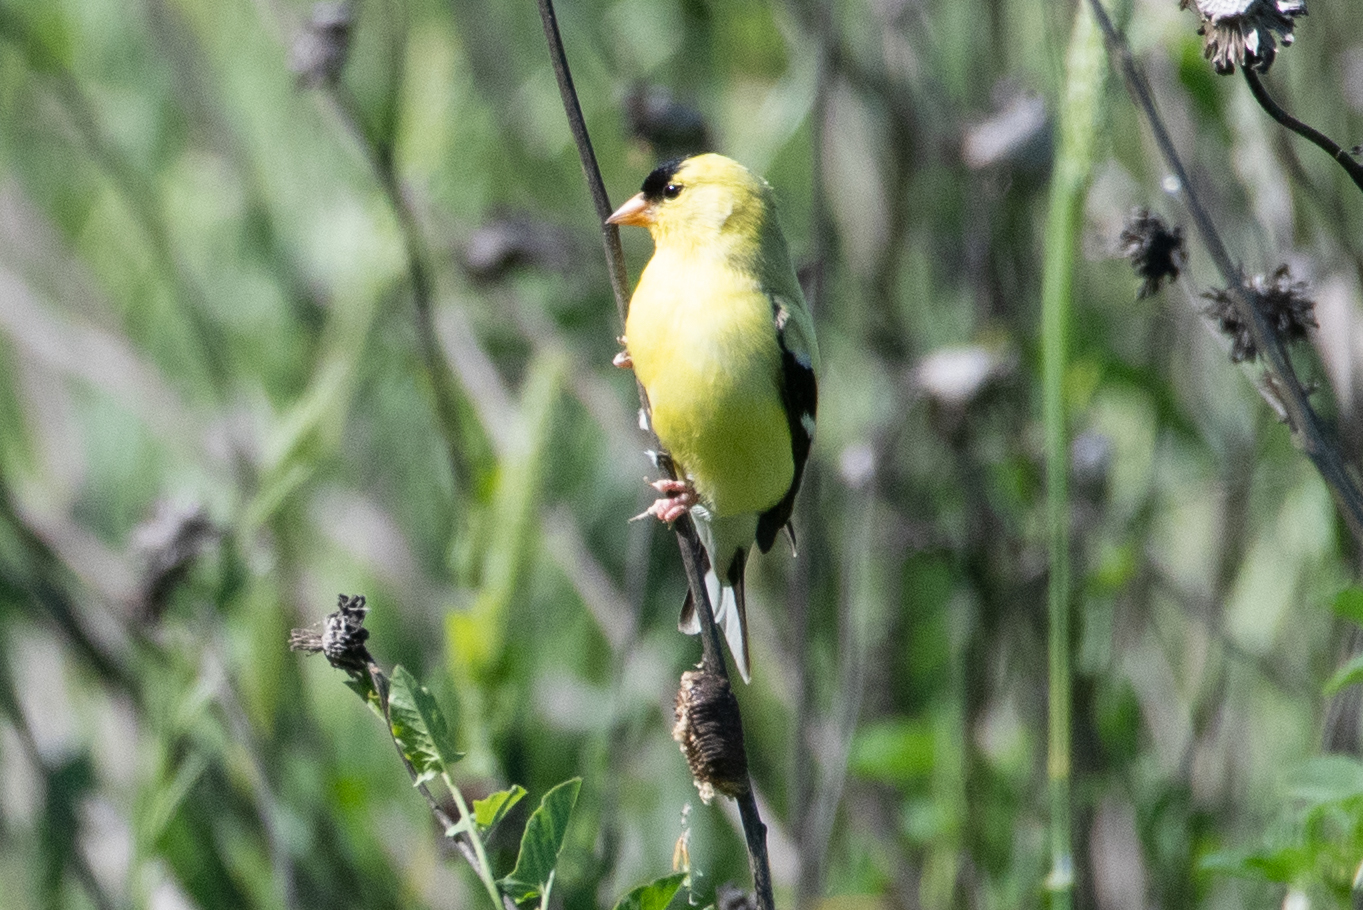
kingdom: Animalia
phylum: Chordata
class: Aves
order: Passeriformes
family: Fringillidae
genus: Spinus
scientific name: Spinus tristis
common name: American goldfinch
